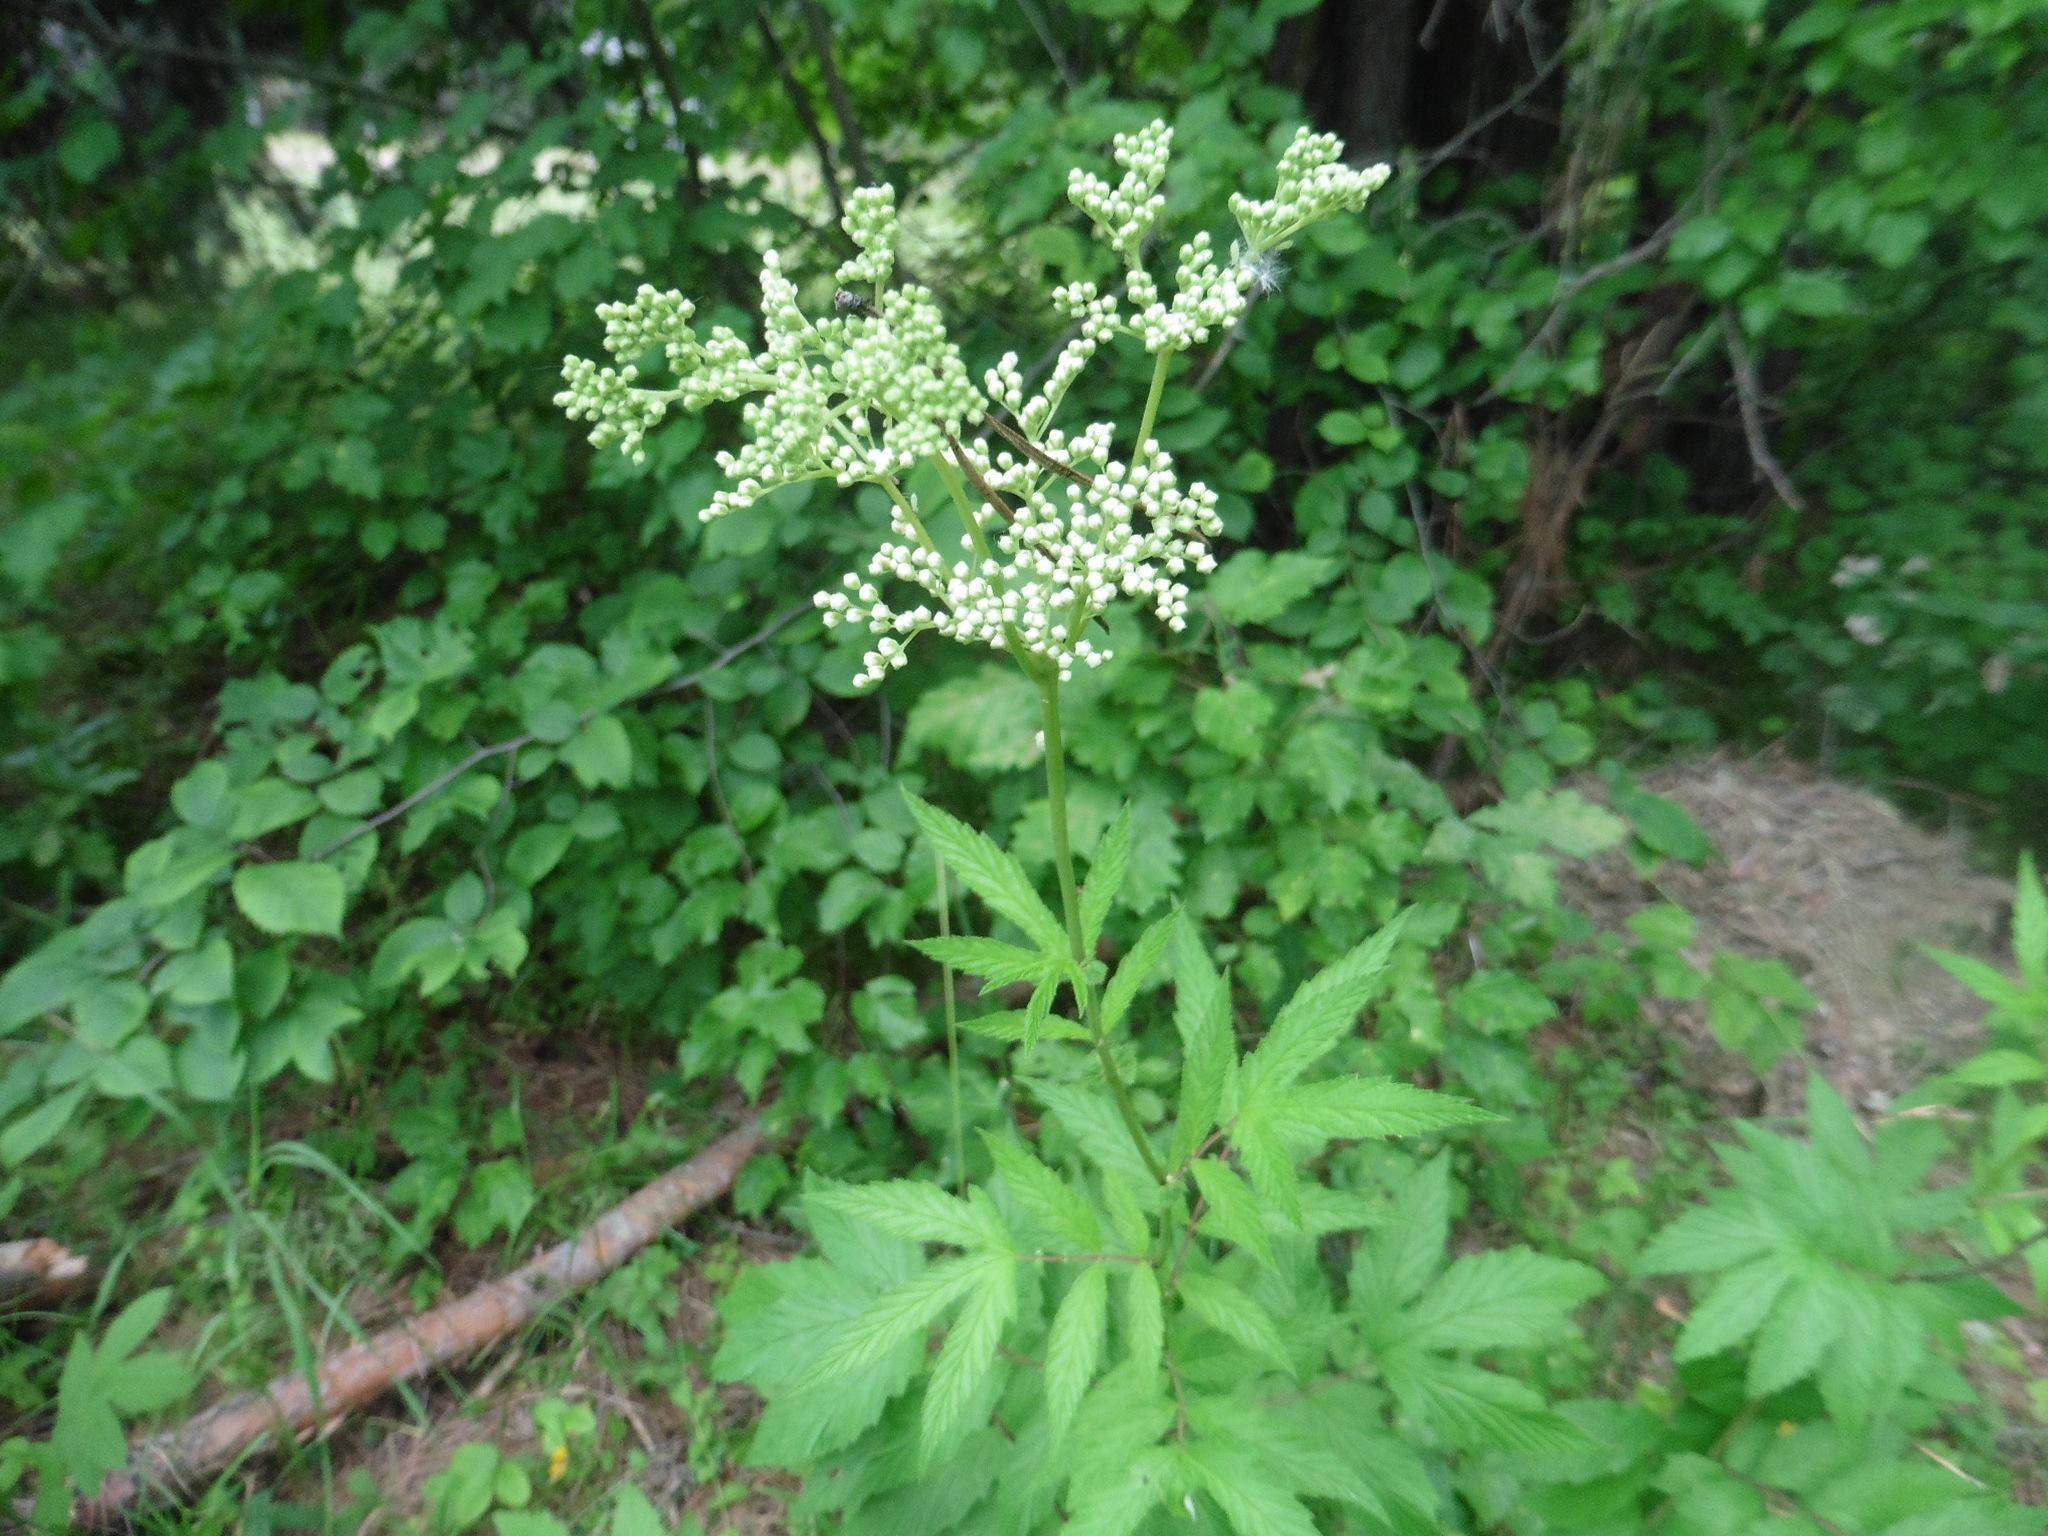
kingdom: Plantae
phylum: Tracheophyta
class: Magnoliopsida
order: Rosales
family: Rosaceae
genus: Filipendula
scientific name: Filipendula ulmaria
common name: Meadowsweet
